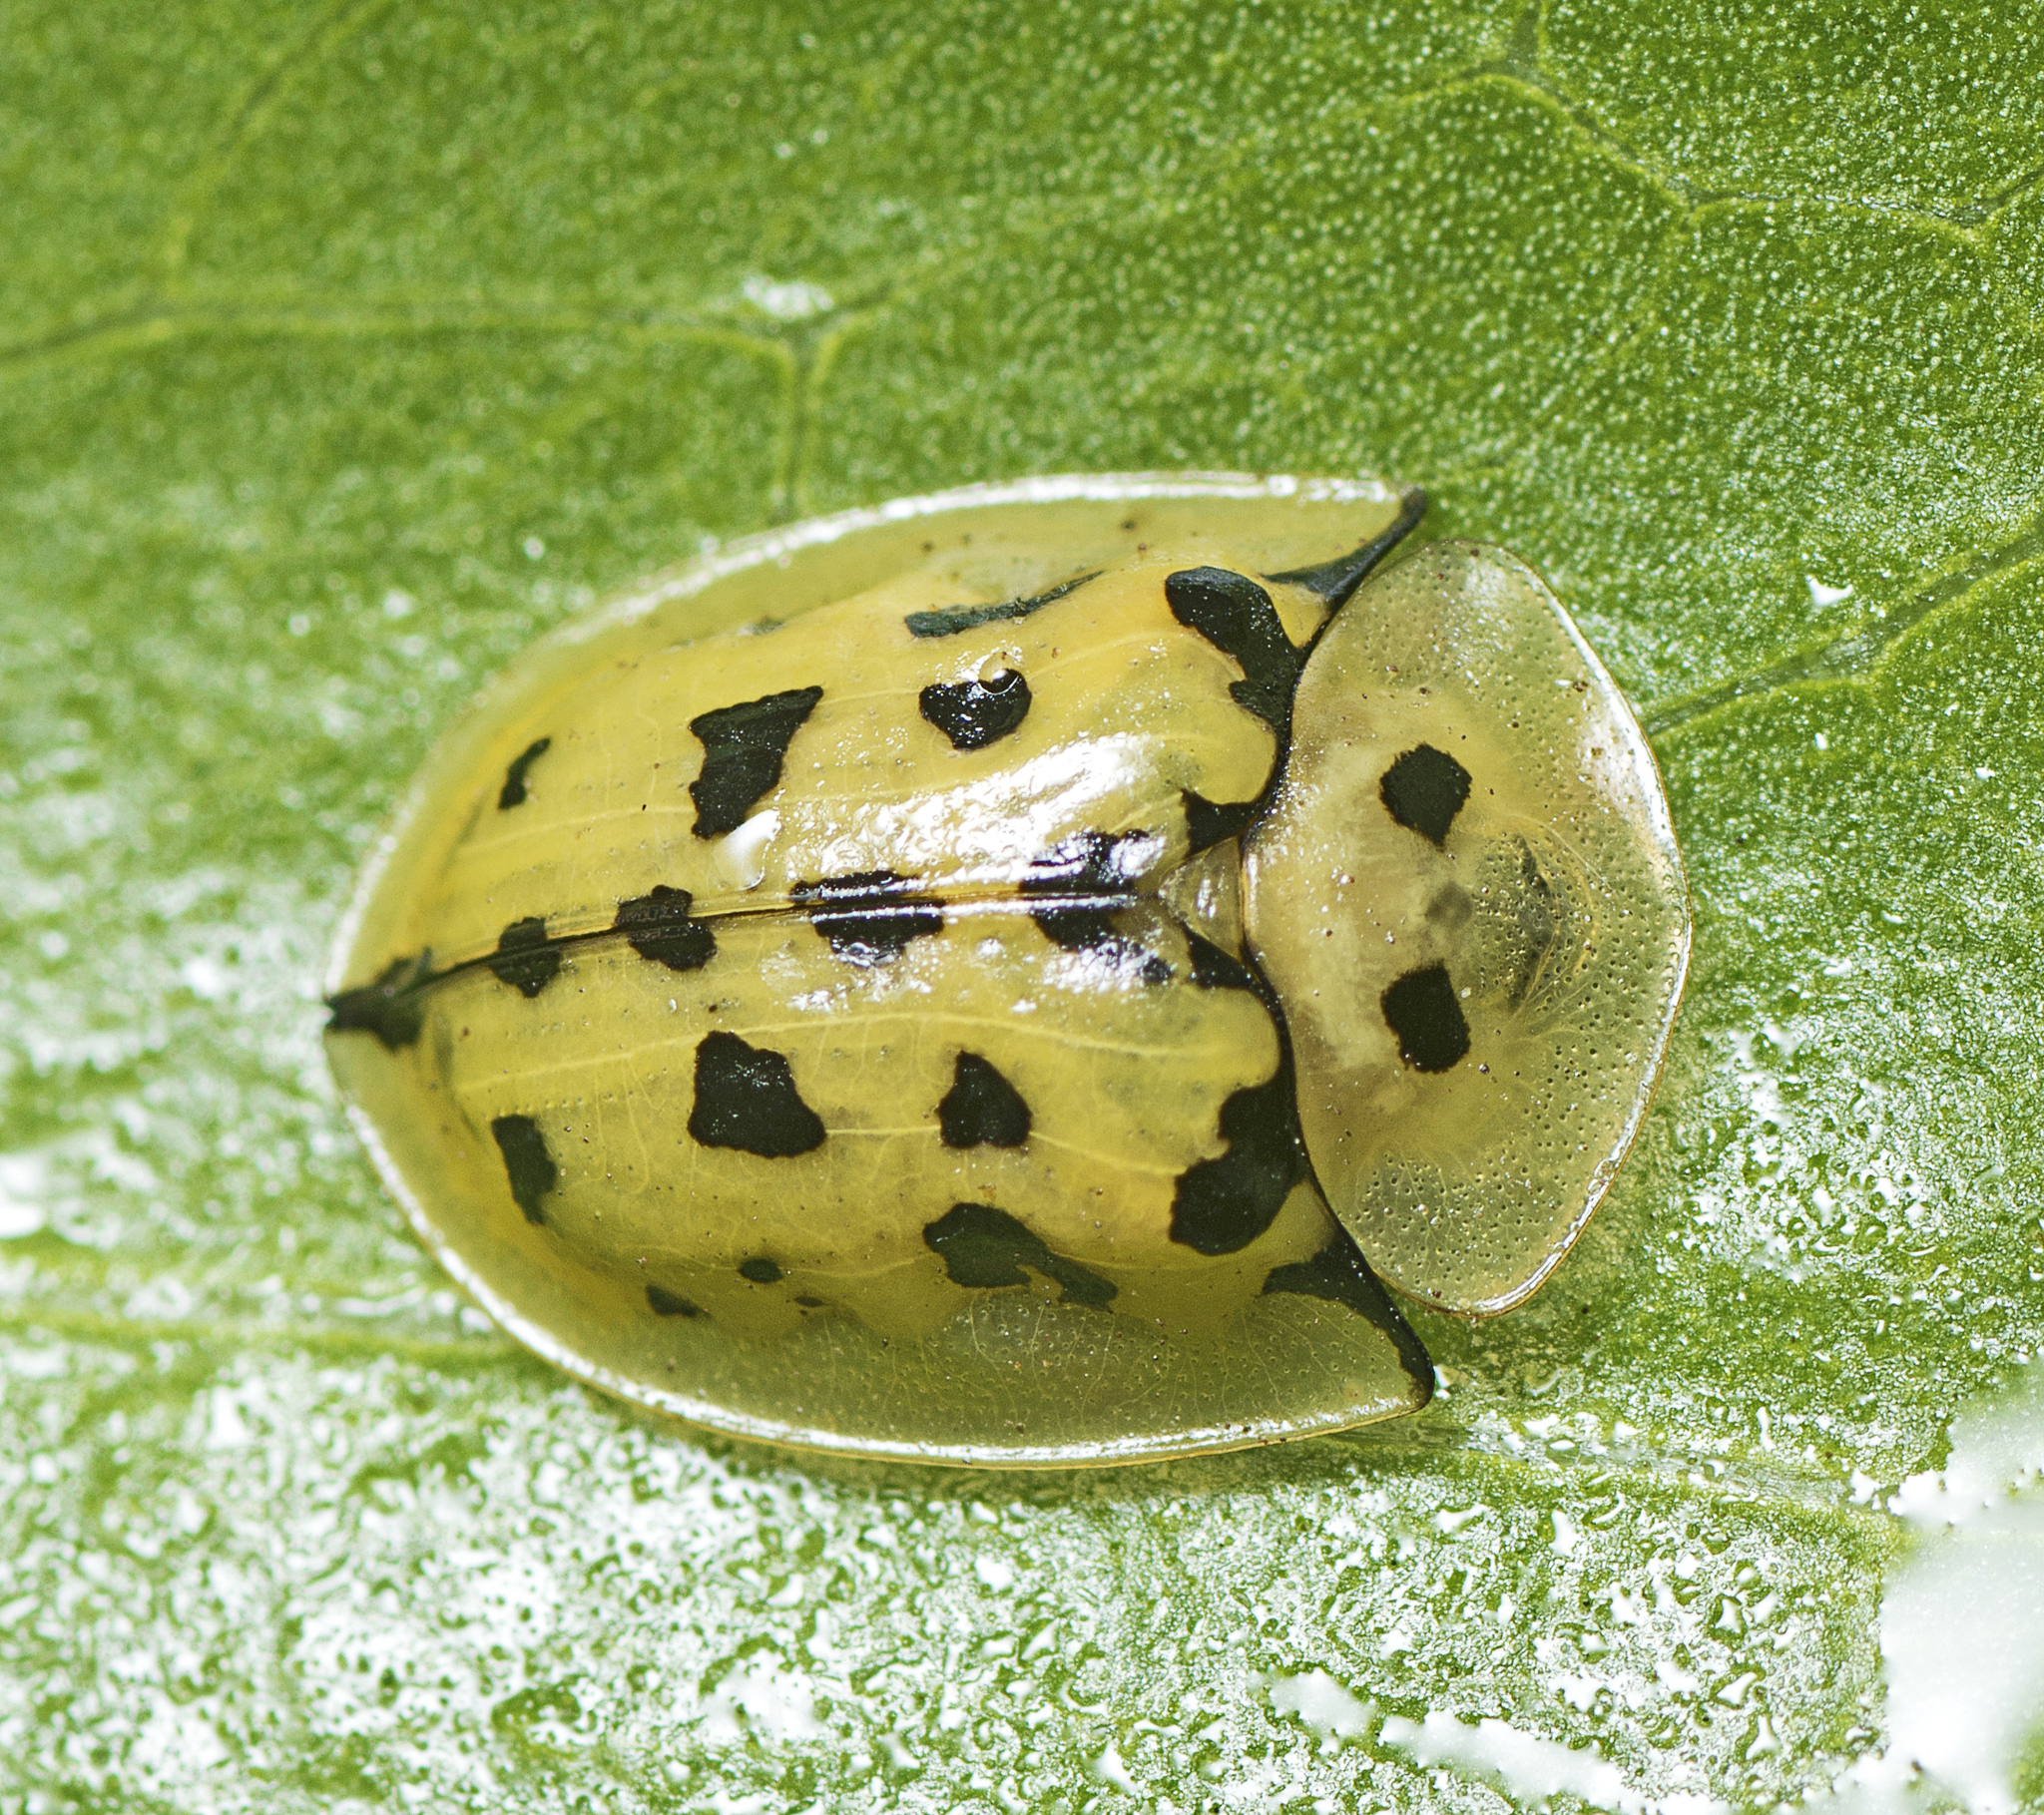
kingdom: Animalia
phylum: Arthropoda
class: Insecta
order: Coleoptera
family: Chrysomelidae
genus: Aspidimorpha
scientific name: Aspidimorpha deusta
